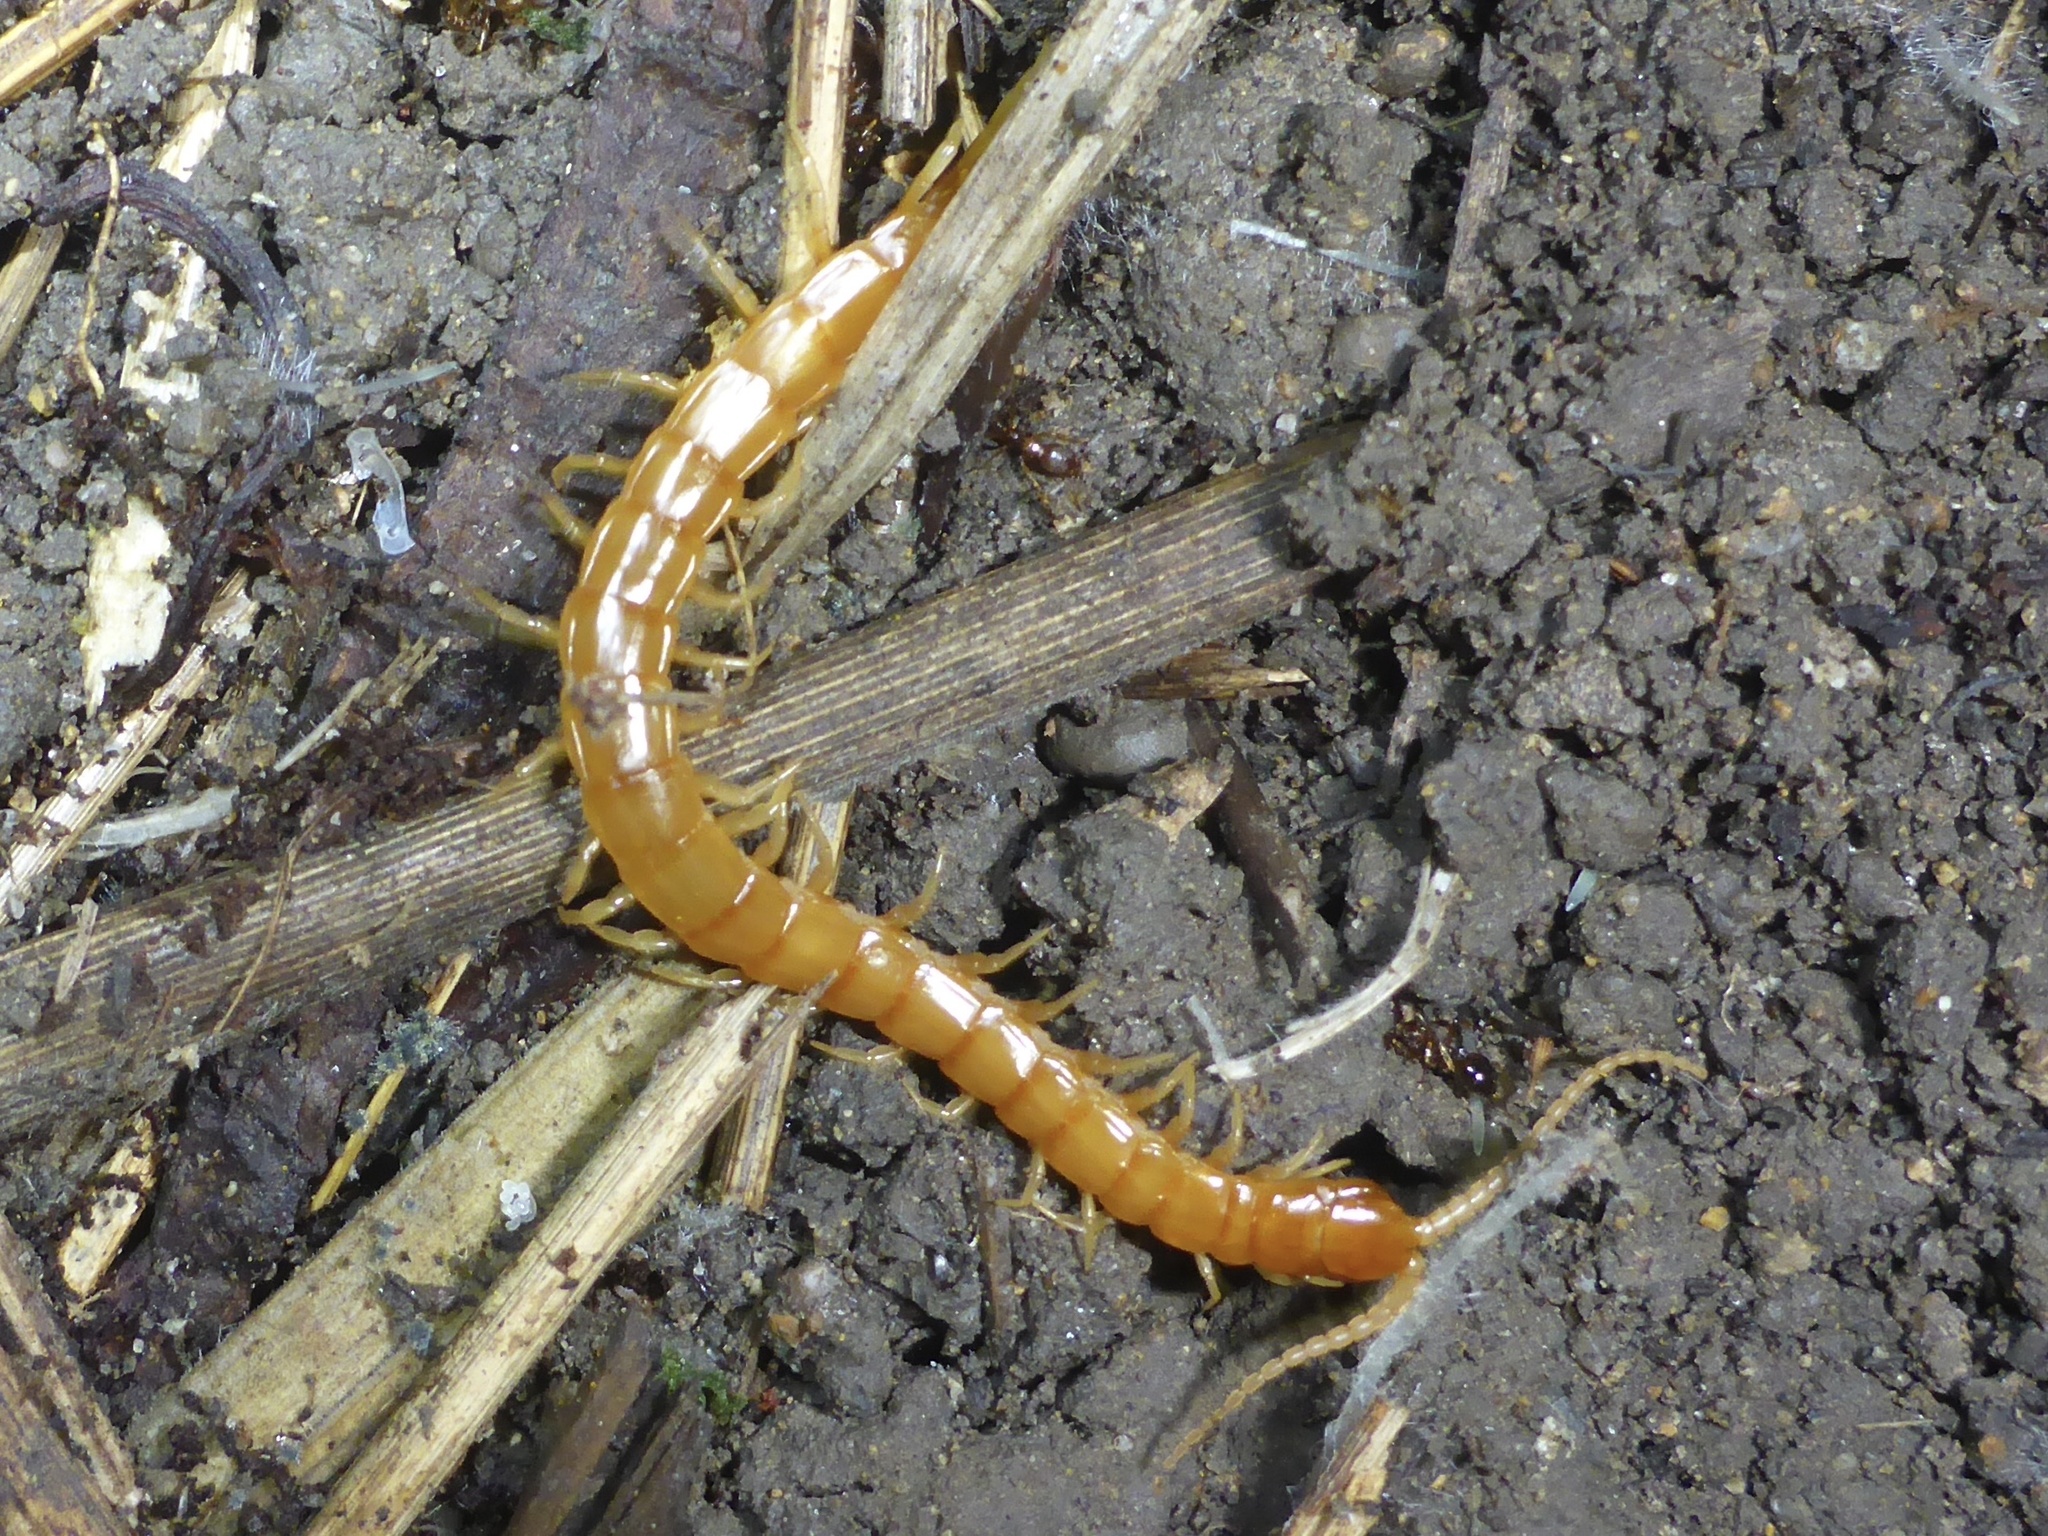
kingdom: Animalia
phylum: Arthropoda
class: Chilopoda
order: Scolopendromorpha
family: Scolopocryptopidae
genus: Scolopocryptops
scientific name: Scolopocryptops gracilis
